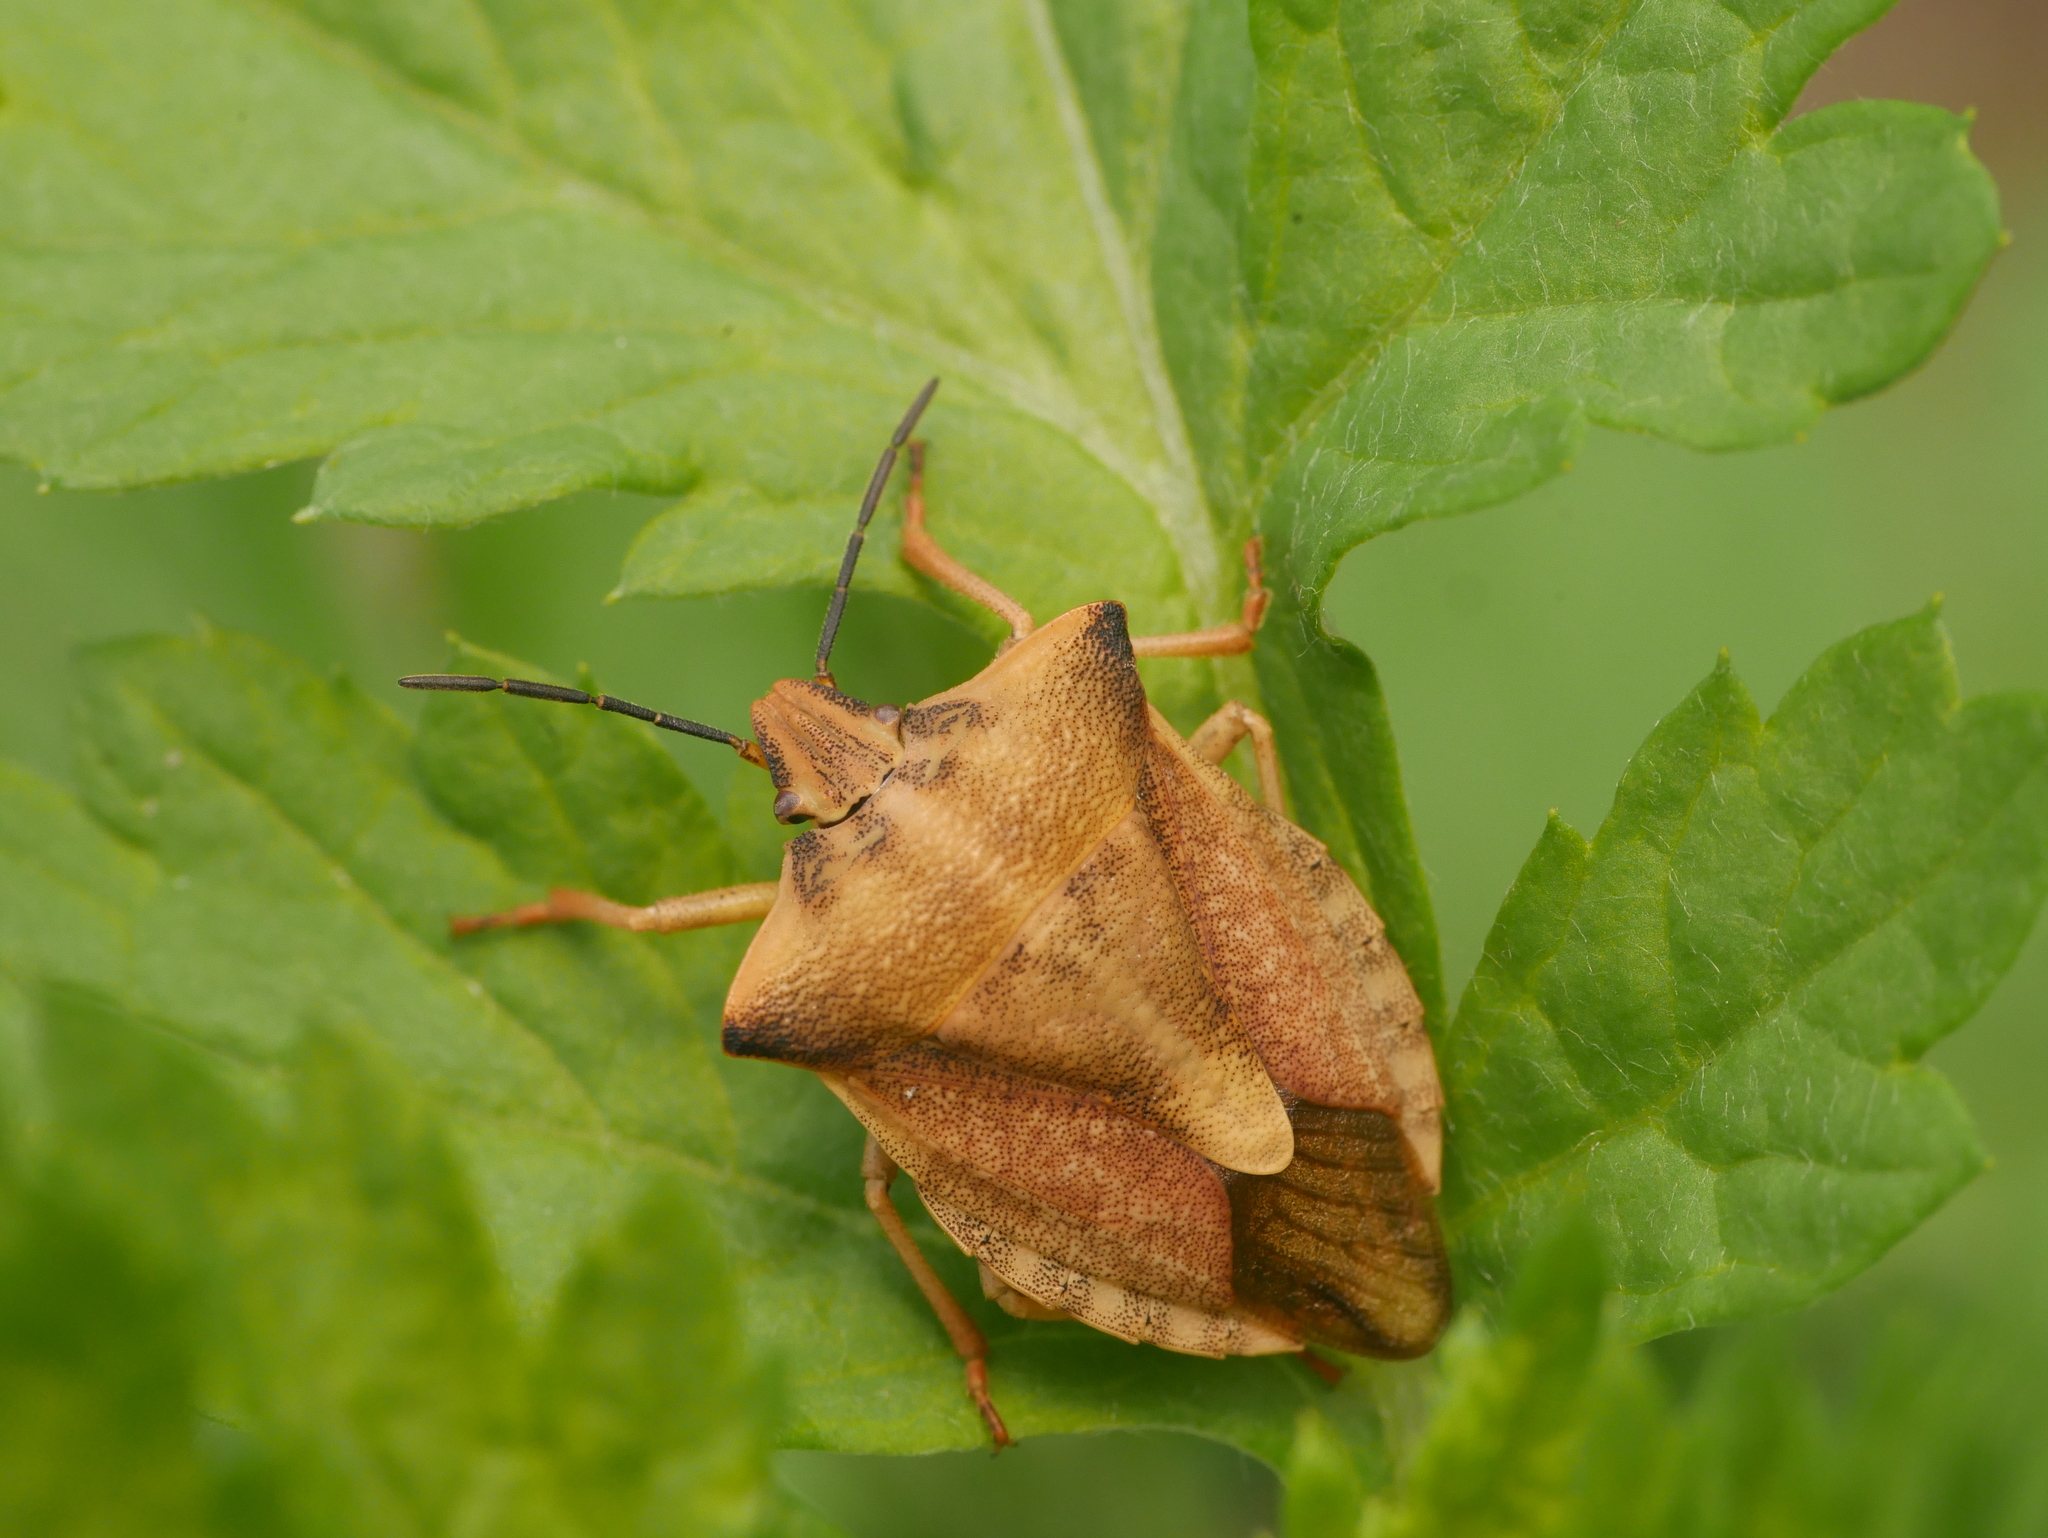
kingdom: Animalia
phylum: Arthropoda
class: Insecta
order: Hemiptera
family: Pentatomidae
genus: Carpocoris
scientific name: Carpocoris fuscispinus
